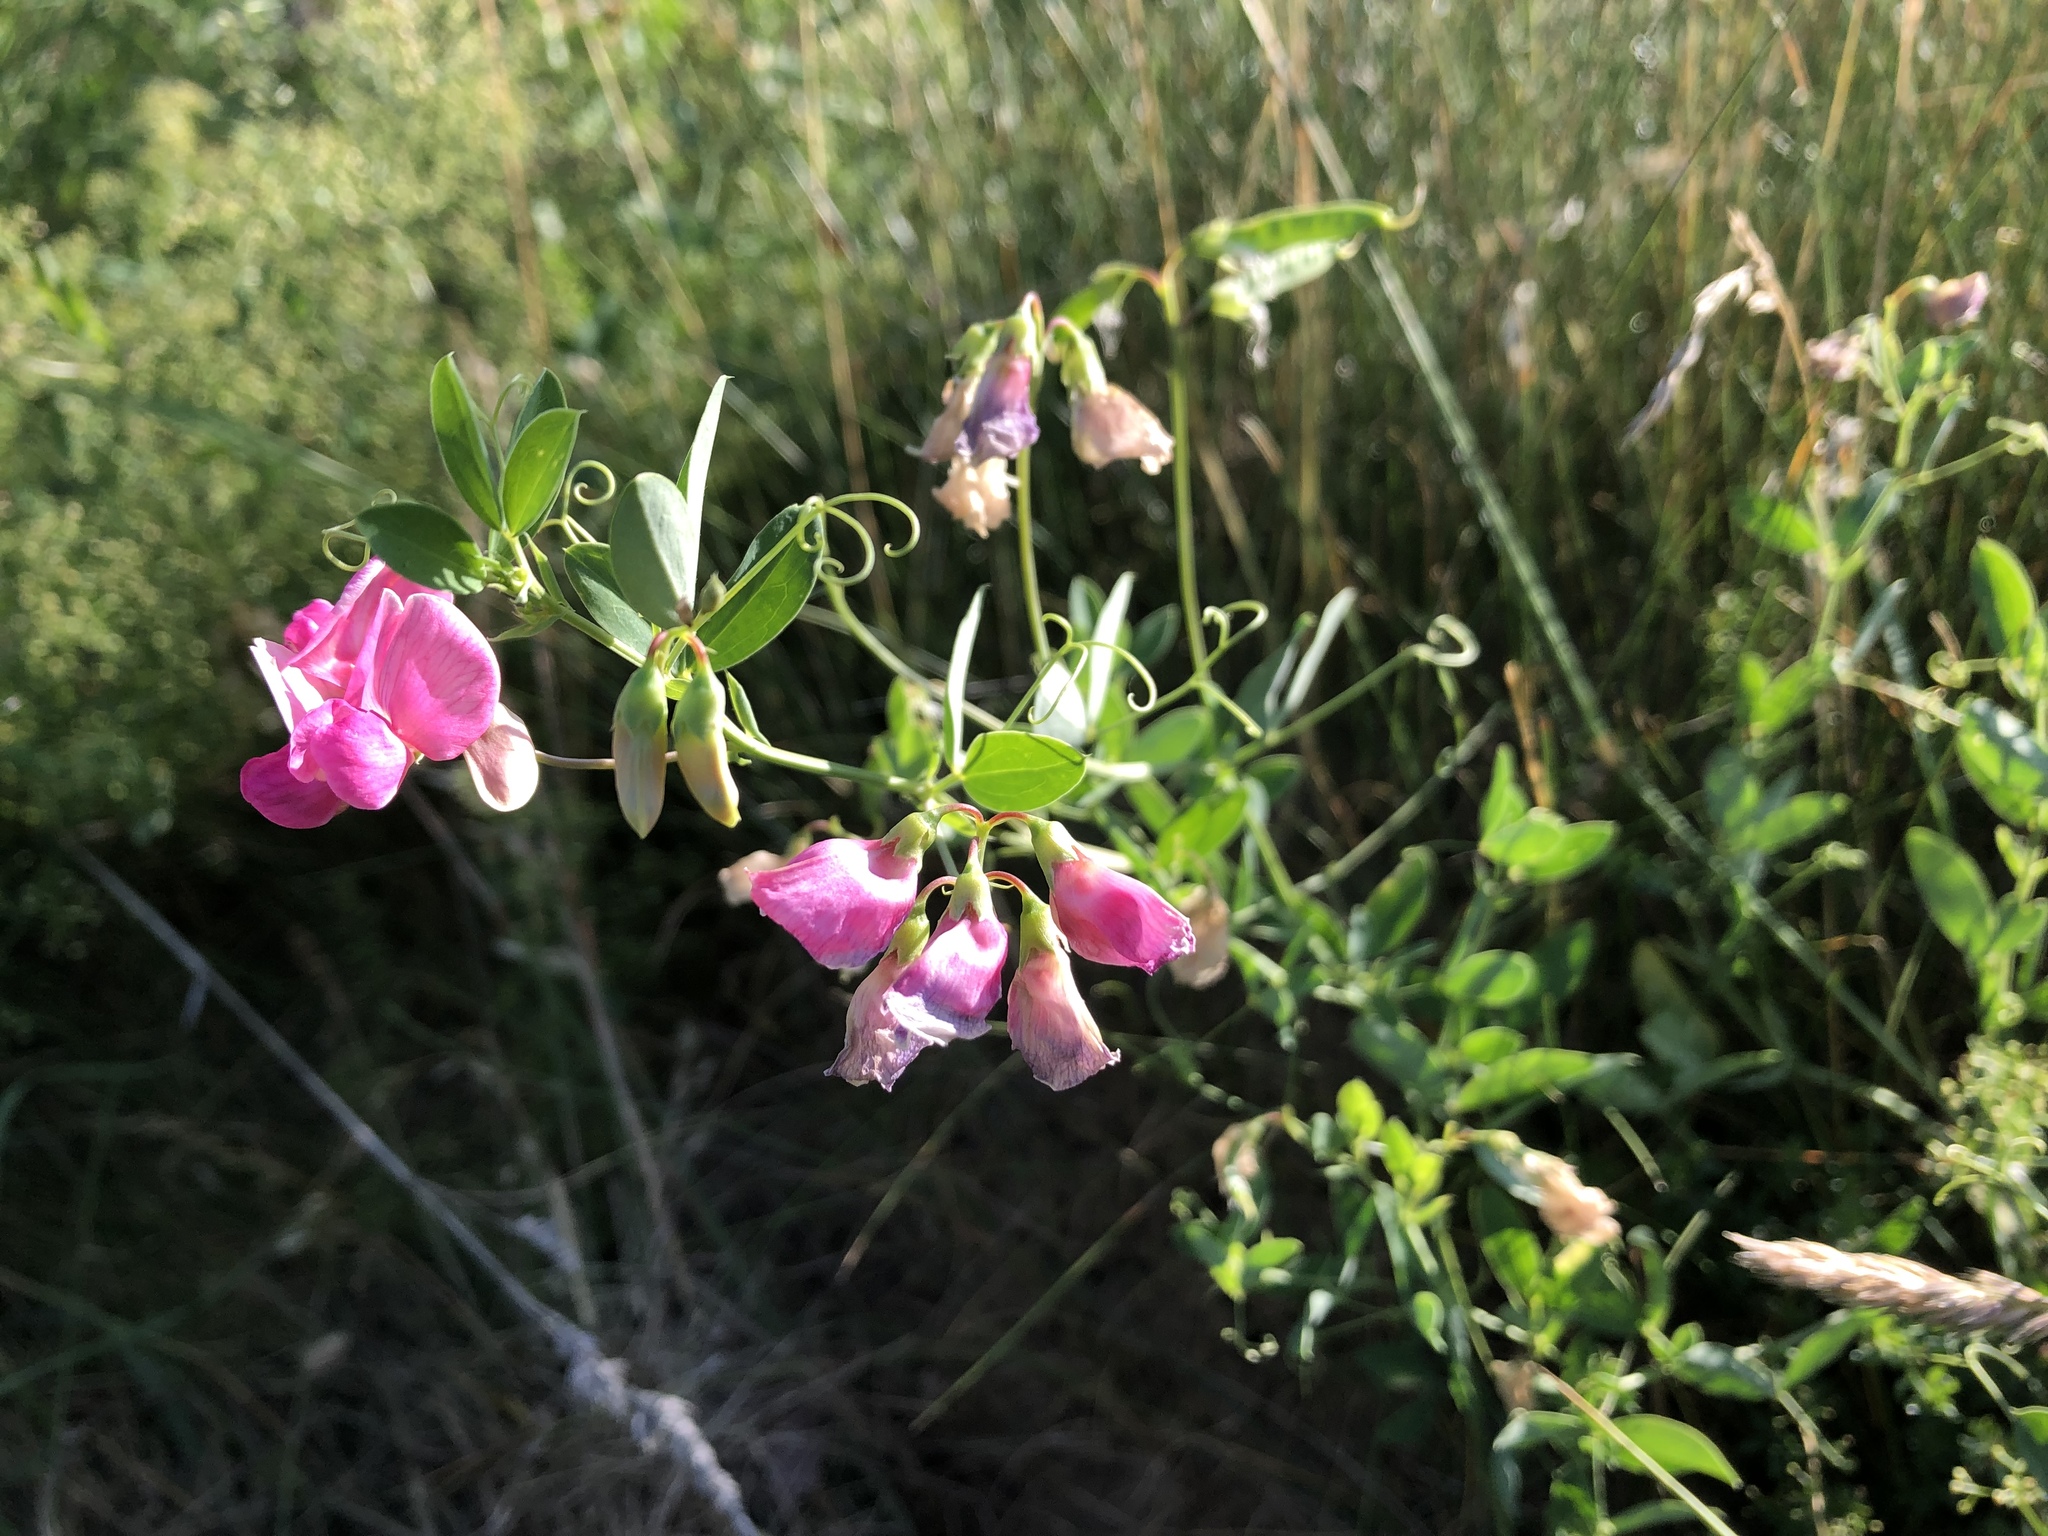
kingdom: Plantae
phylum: Tracheophyta
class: Magnoliopsida
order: Fabales
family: Fabaceae
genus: Lathyrus
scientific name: Lathyrus tuberosus
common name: Tuberous pea
